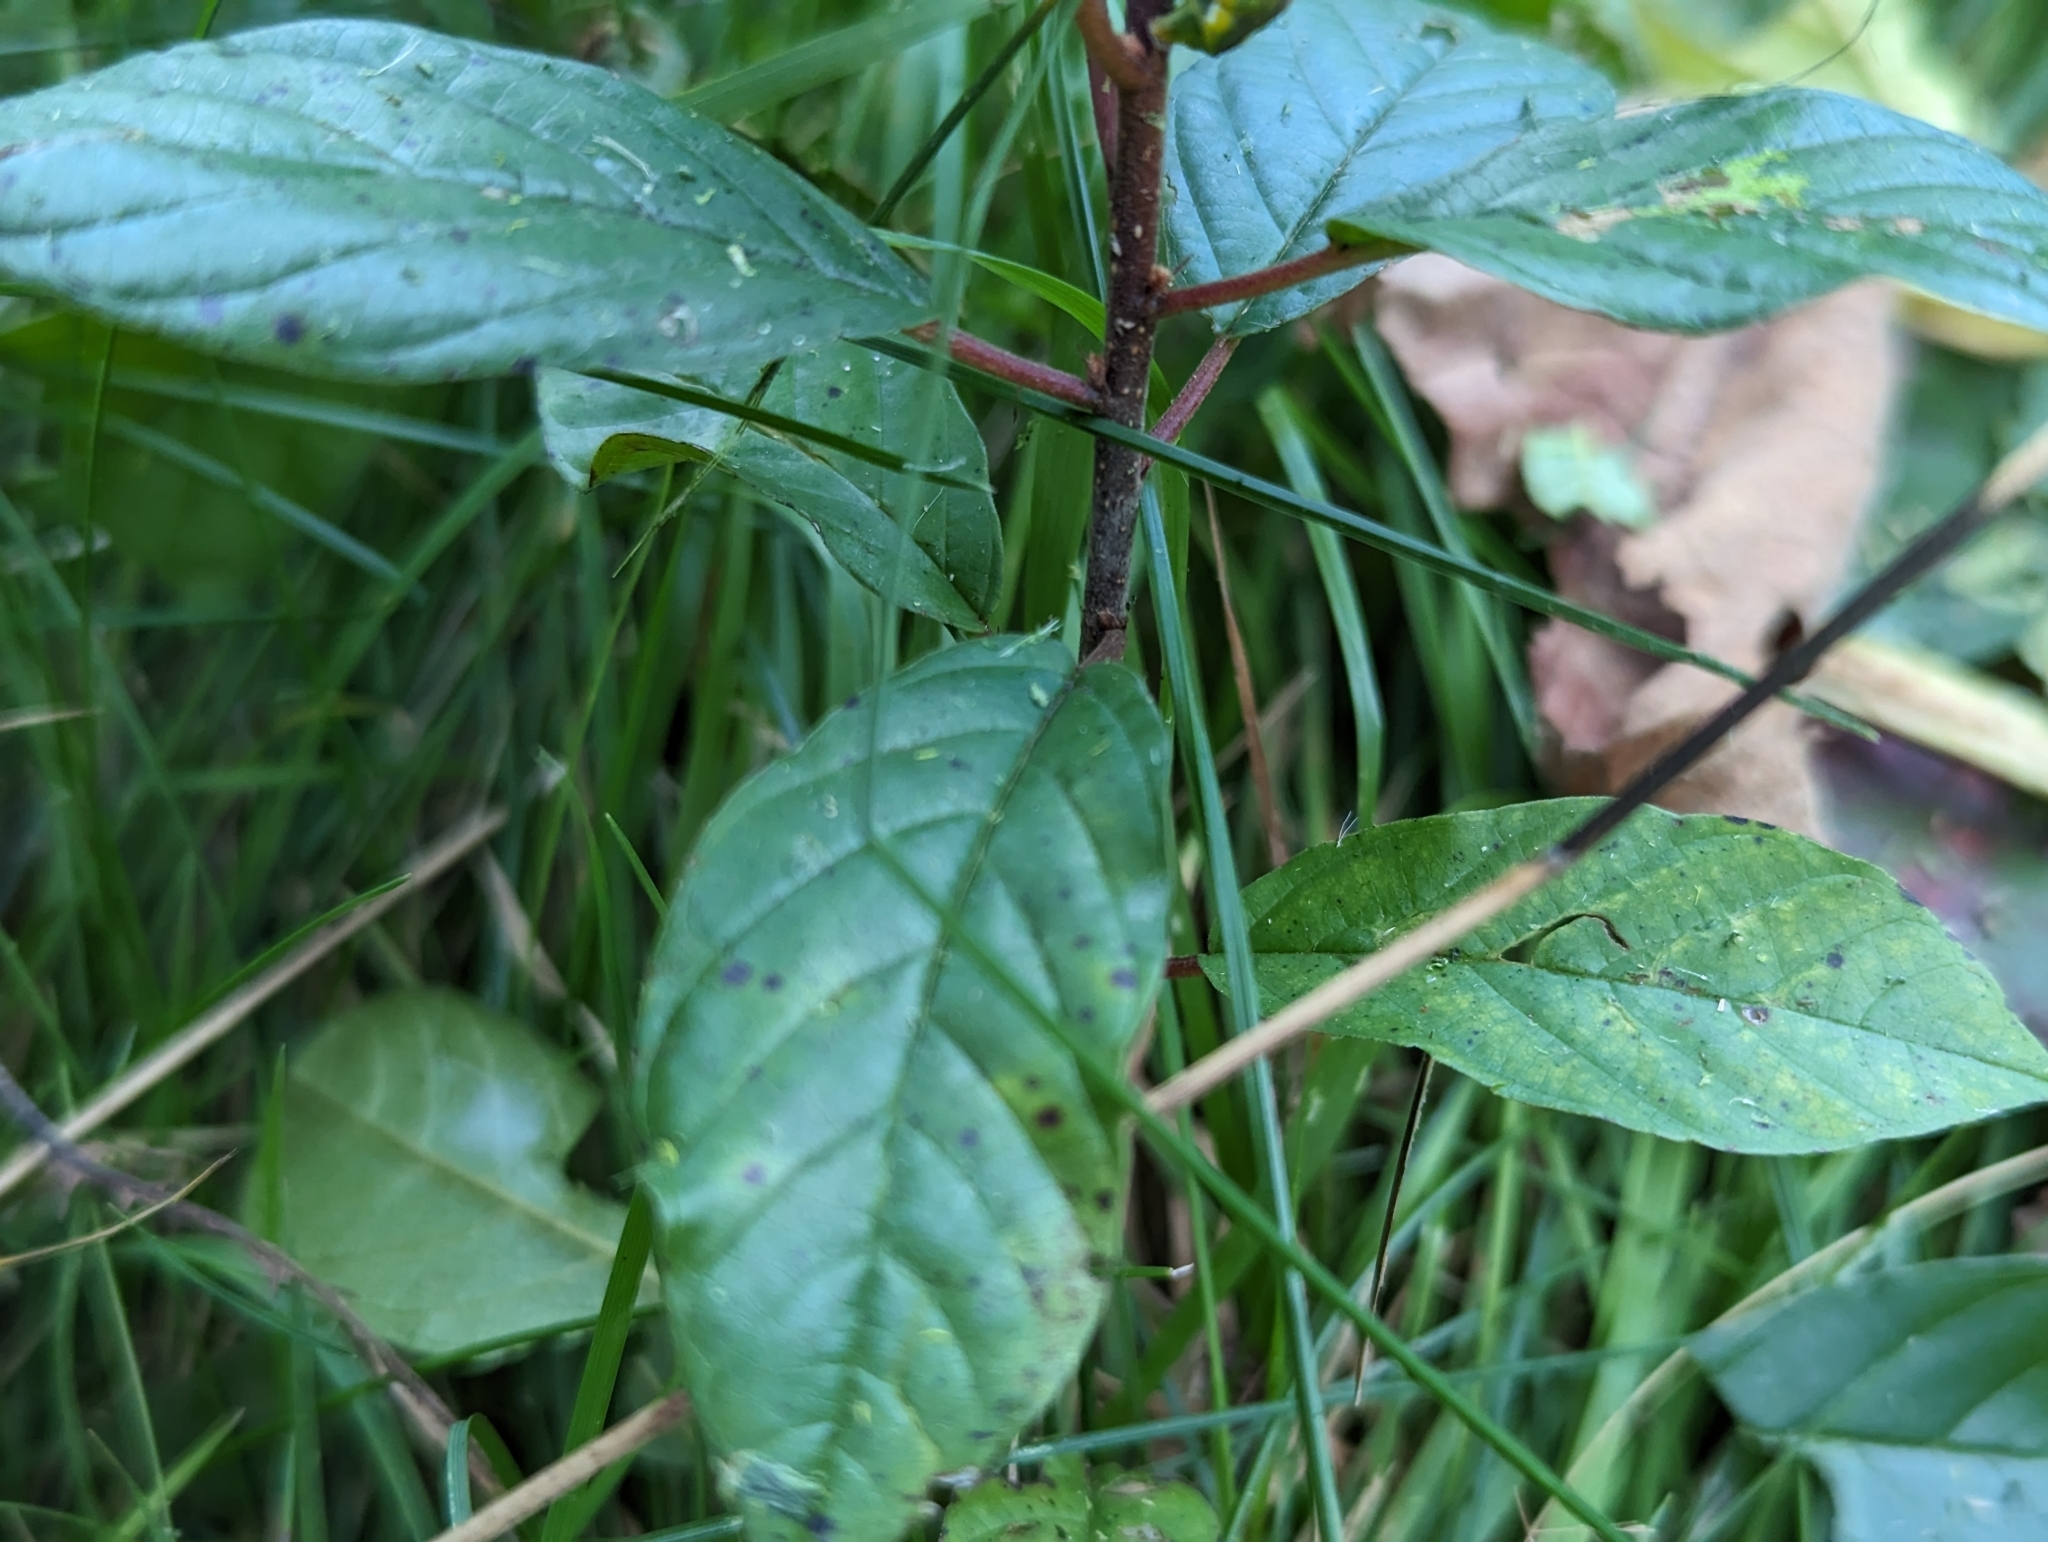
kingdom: Plantae
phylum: Tracheophyta
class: Magnoliopsida
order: Rosales
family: Rhamnaceae
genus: Frangula
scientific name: Frangula alnus
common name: Alder buckthorn
